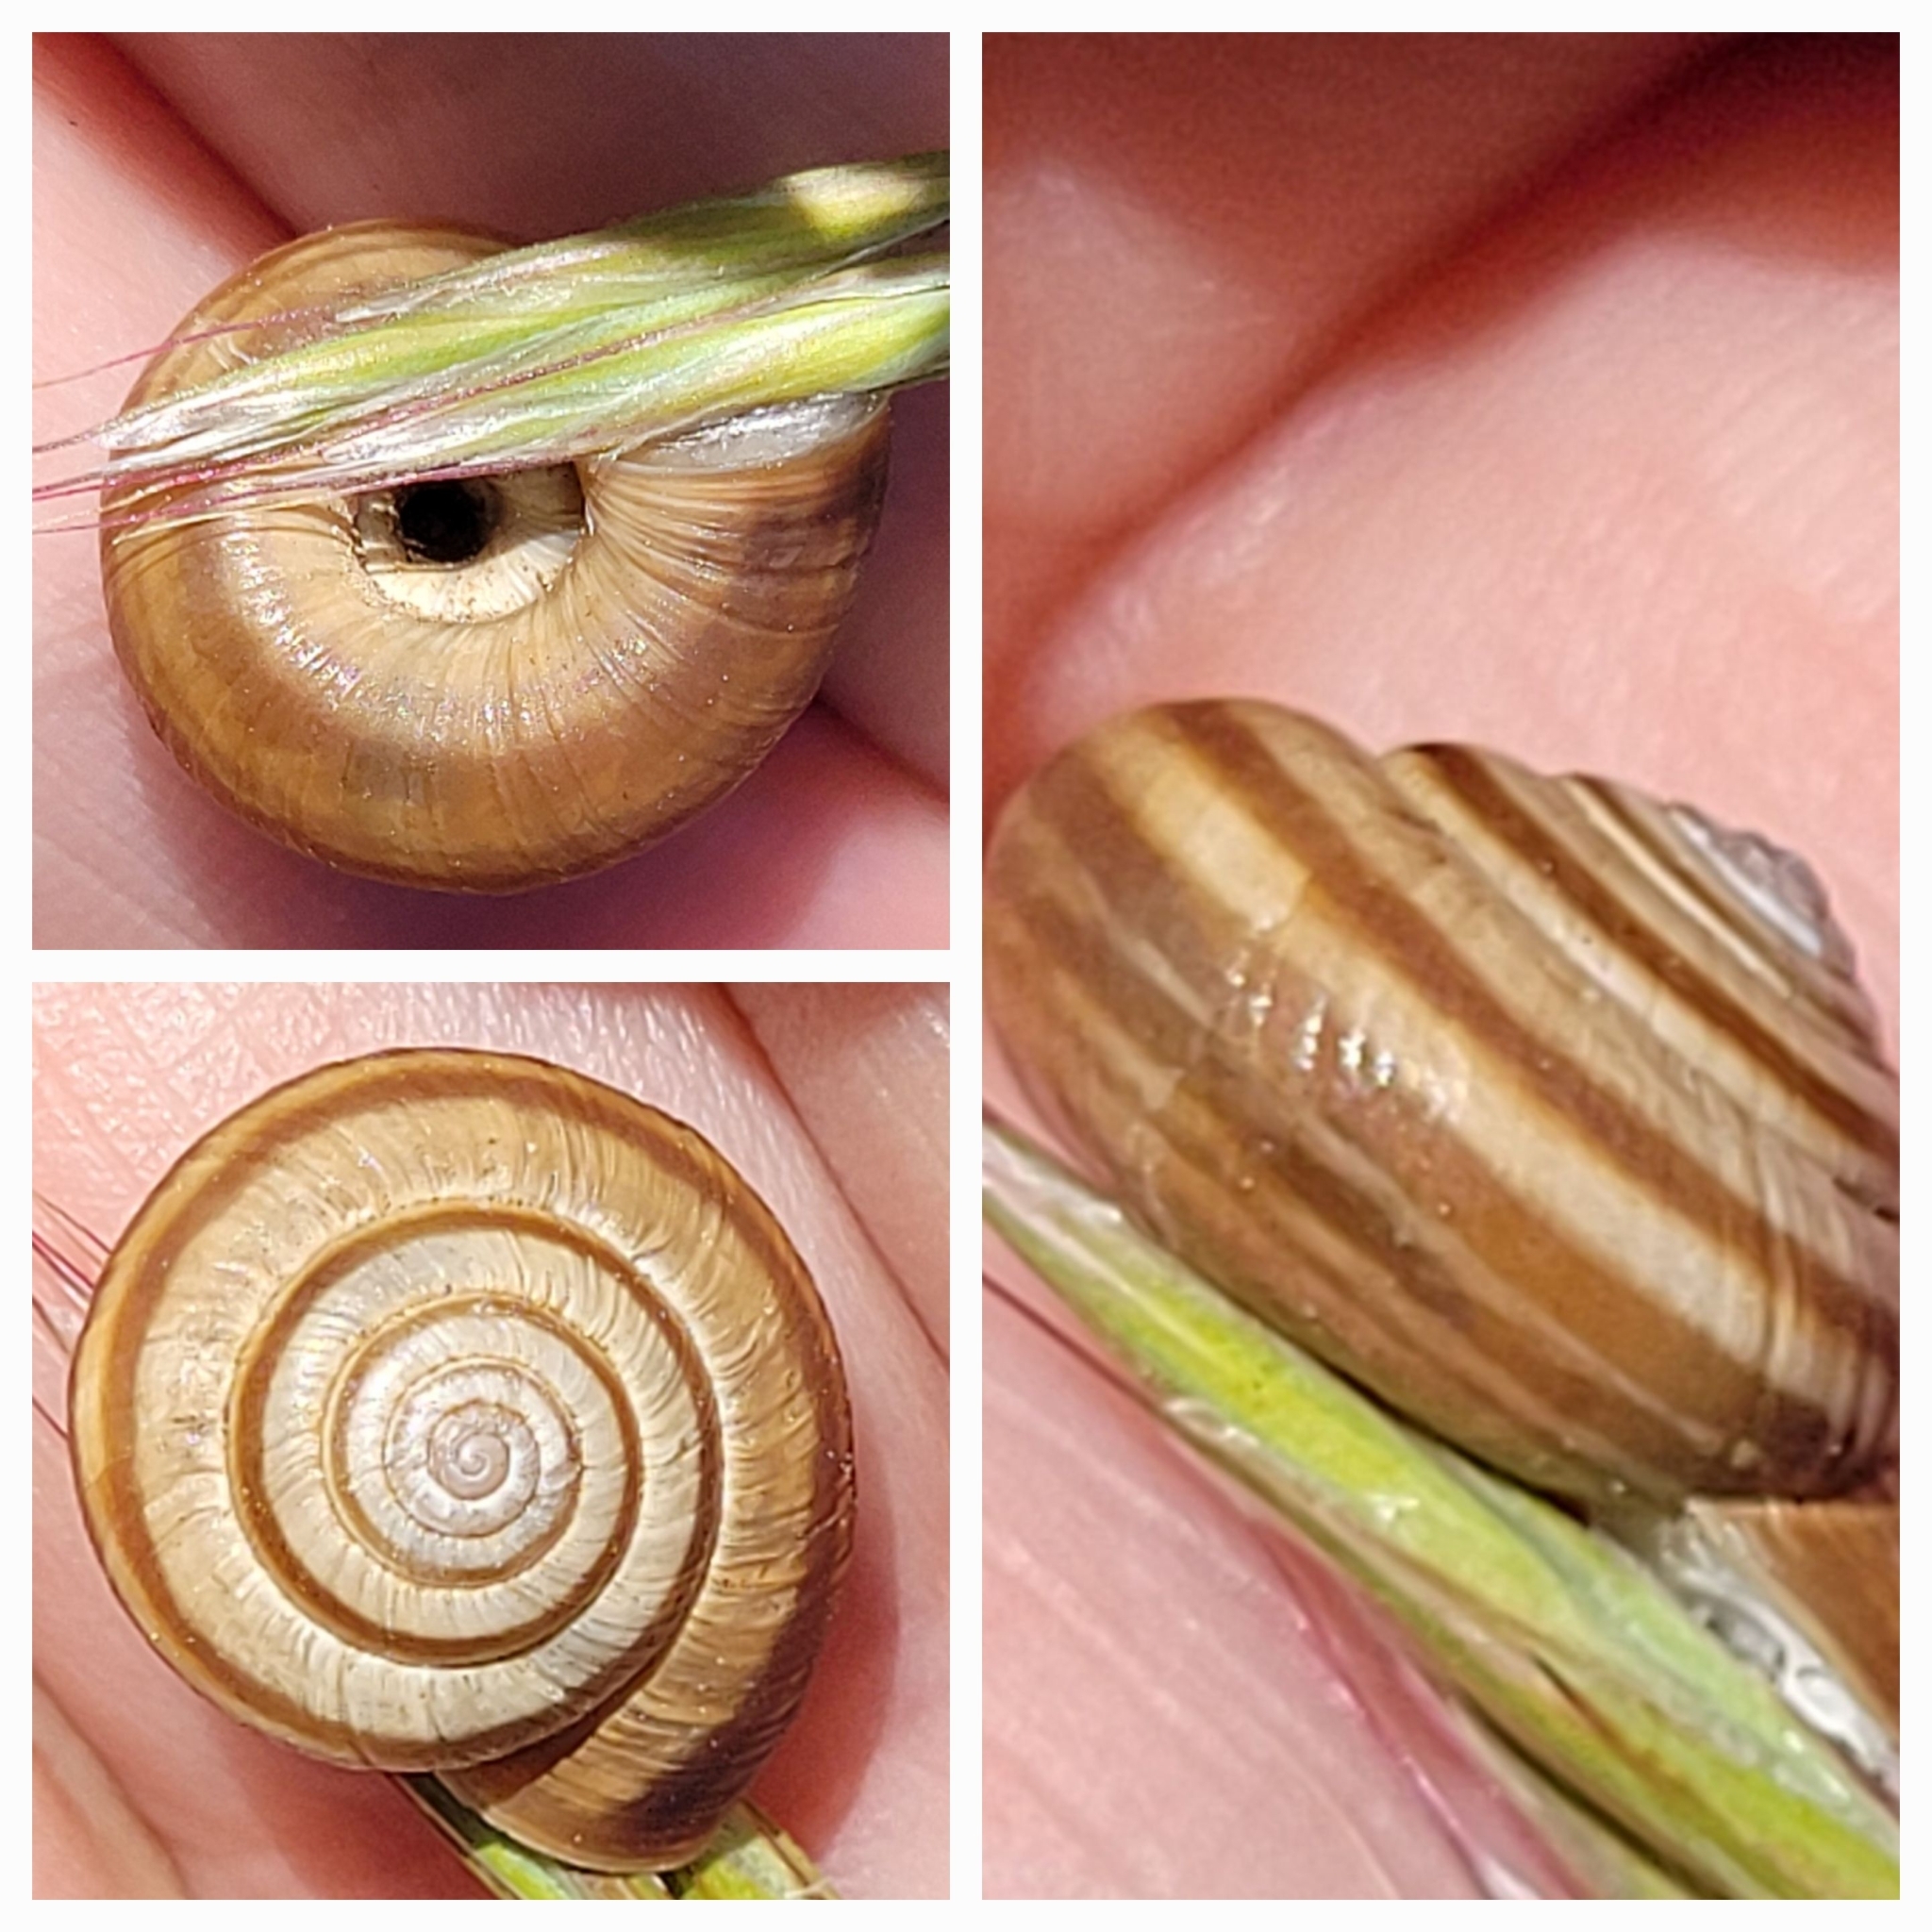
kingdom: Animalia
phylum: Mollusca
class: Gastropoda
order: Stylommatophora
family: Geomitridae
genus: Helicella
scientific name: Helicella itala
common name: Heath snail
